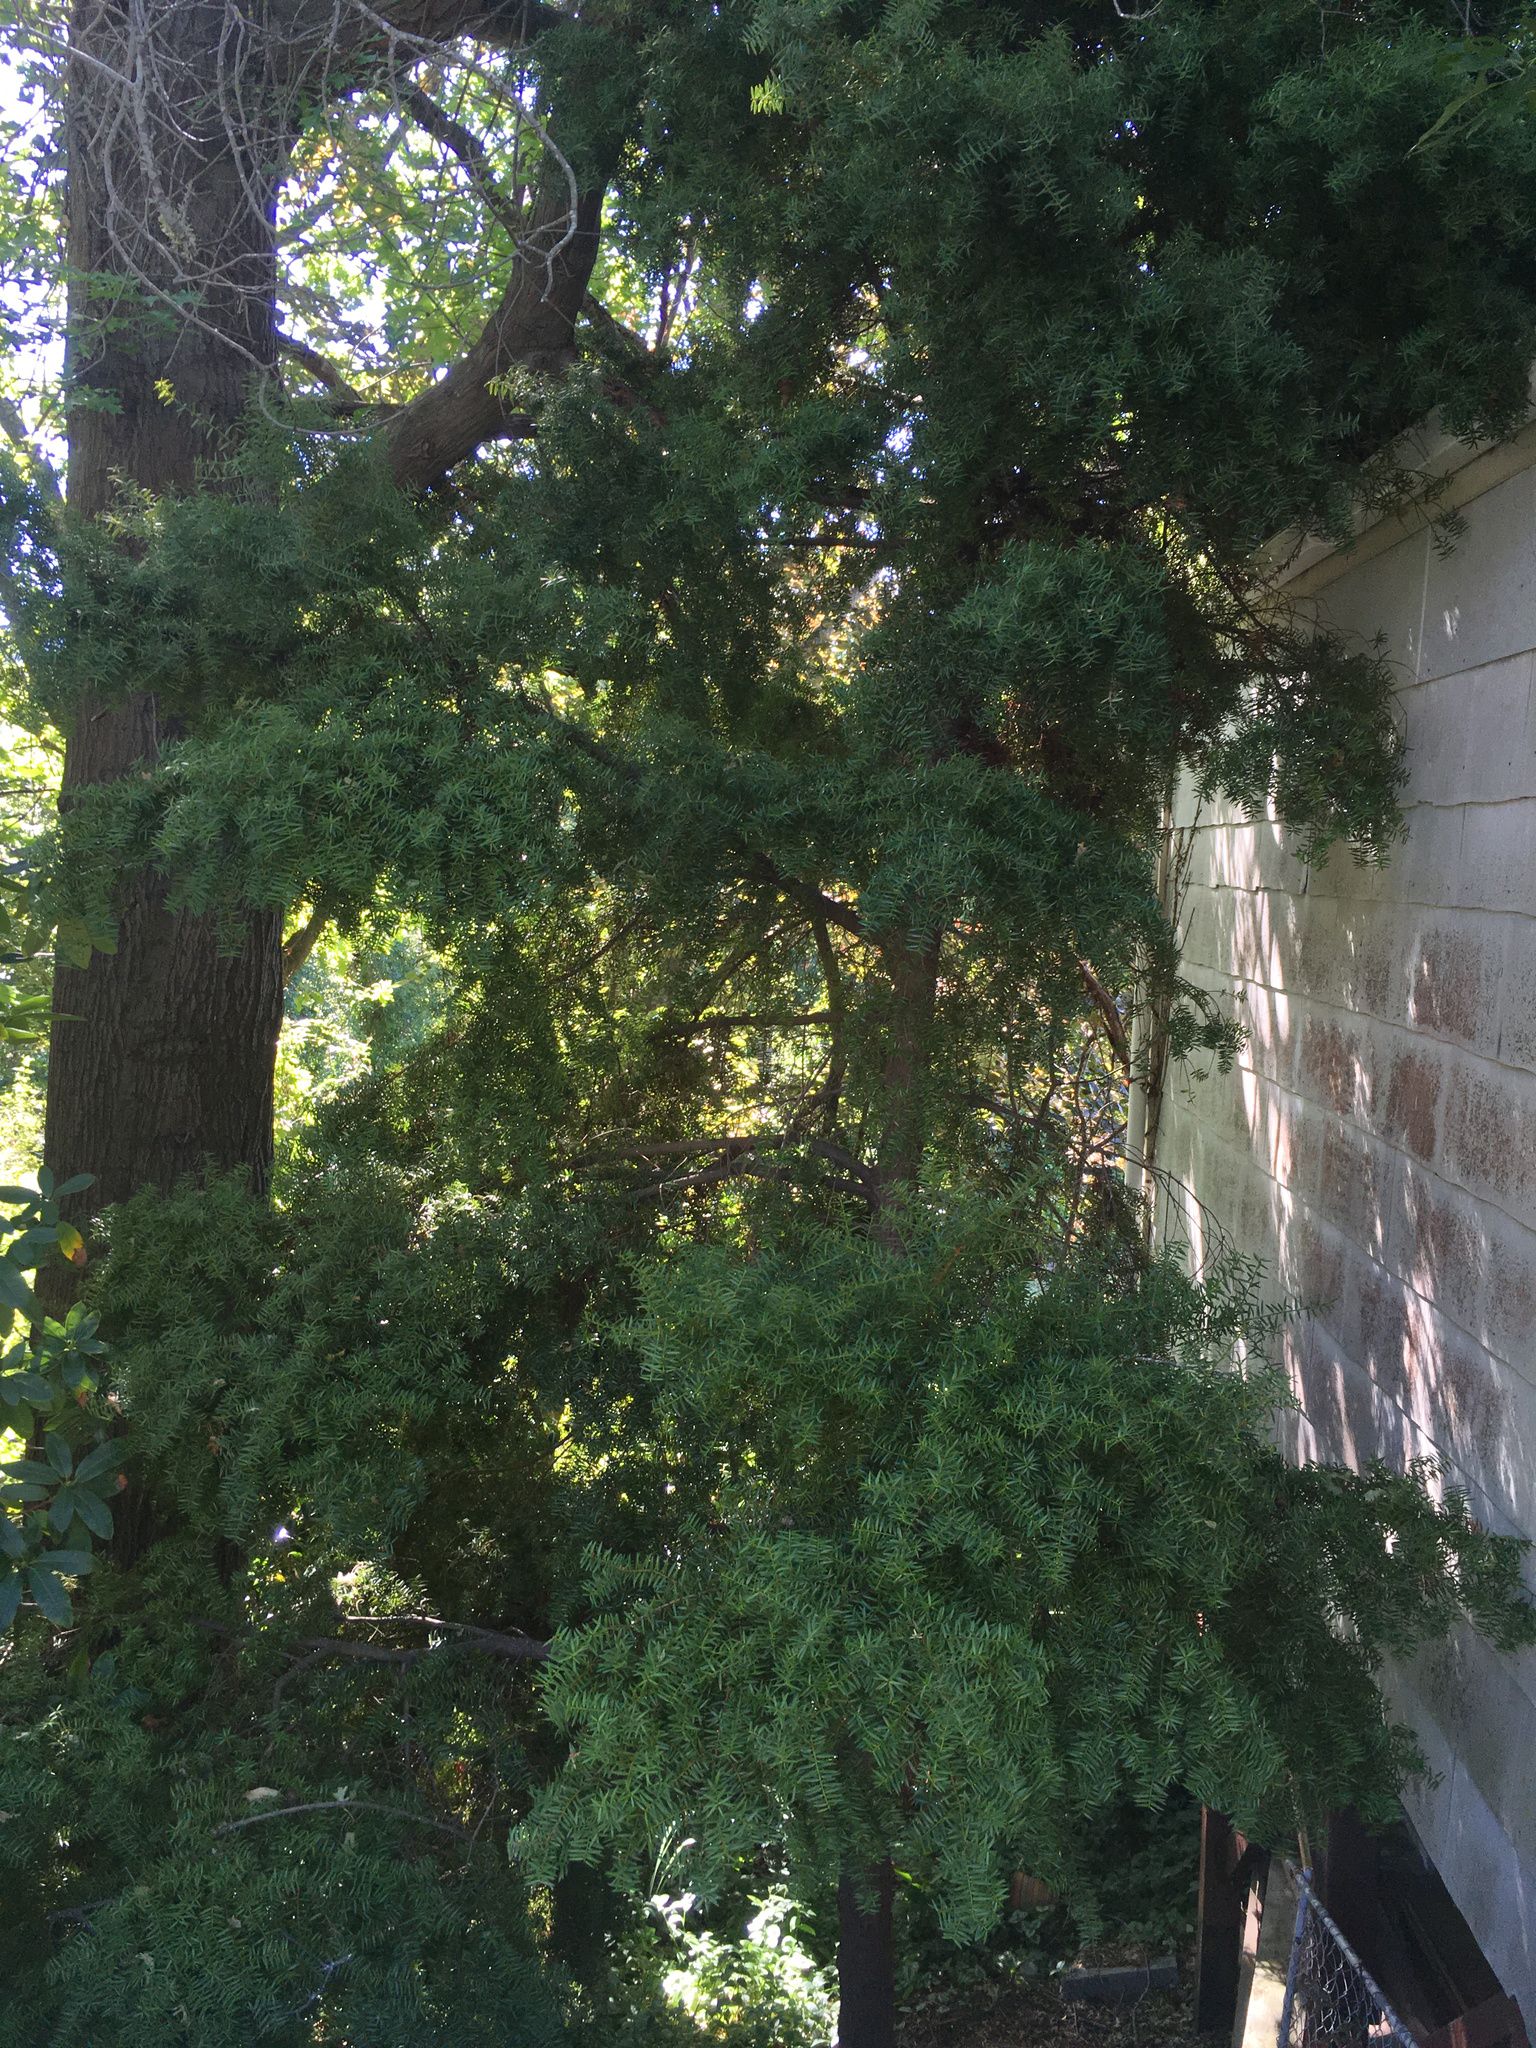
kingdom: Plantae
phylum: Tracheophyta
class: Pinopsida
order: Pinales
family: Podocarpaceae
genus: Podocarpus
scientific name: Podocarpus totara
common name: Totara
